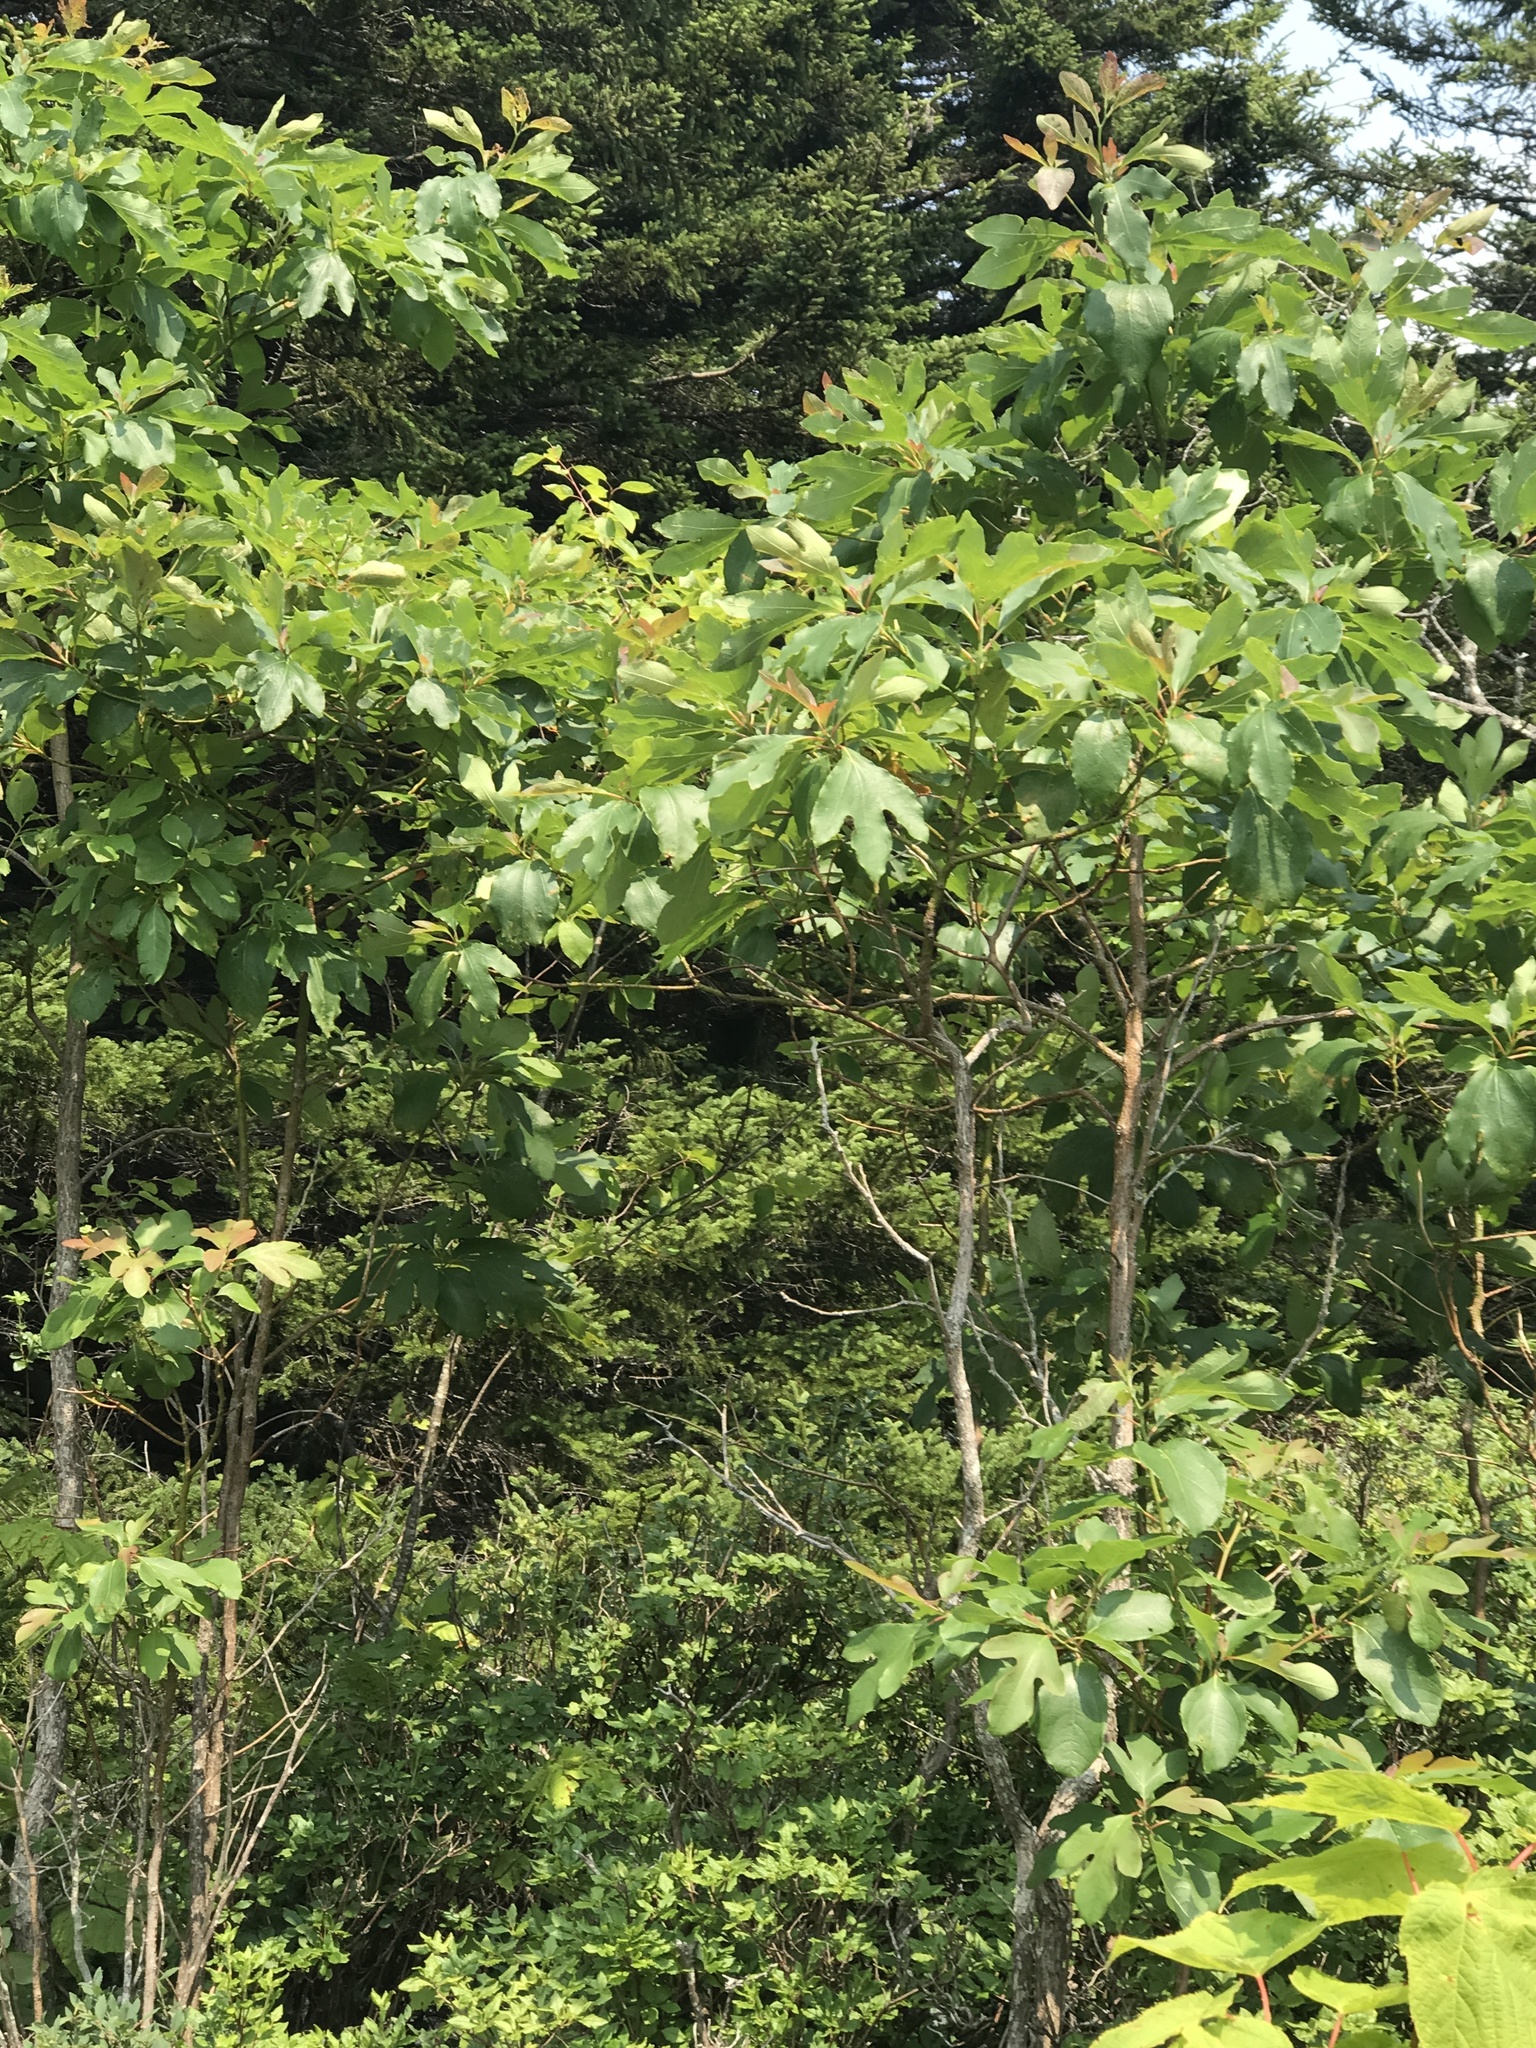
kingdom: Plantae
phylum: Tracheophyta
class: Magnoliopsida
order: Laurales
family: Lauraceae
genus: Sassafras
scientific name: Sassafras albidum
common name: Sassafras
